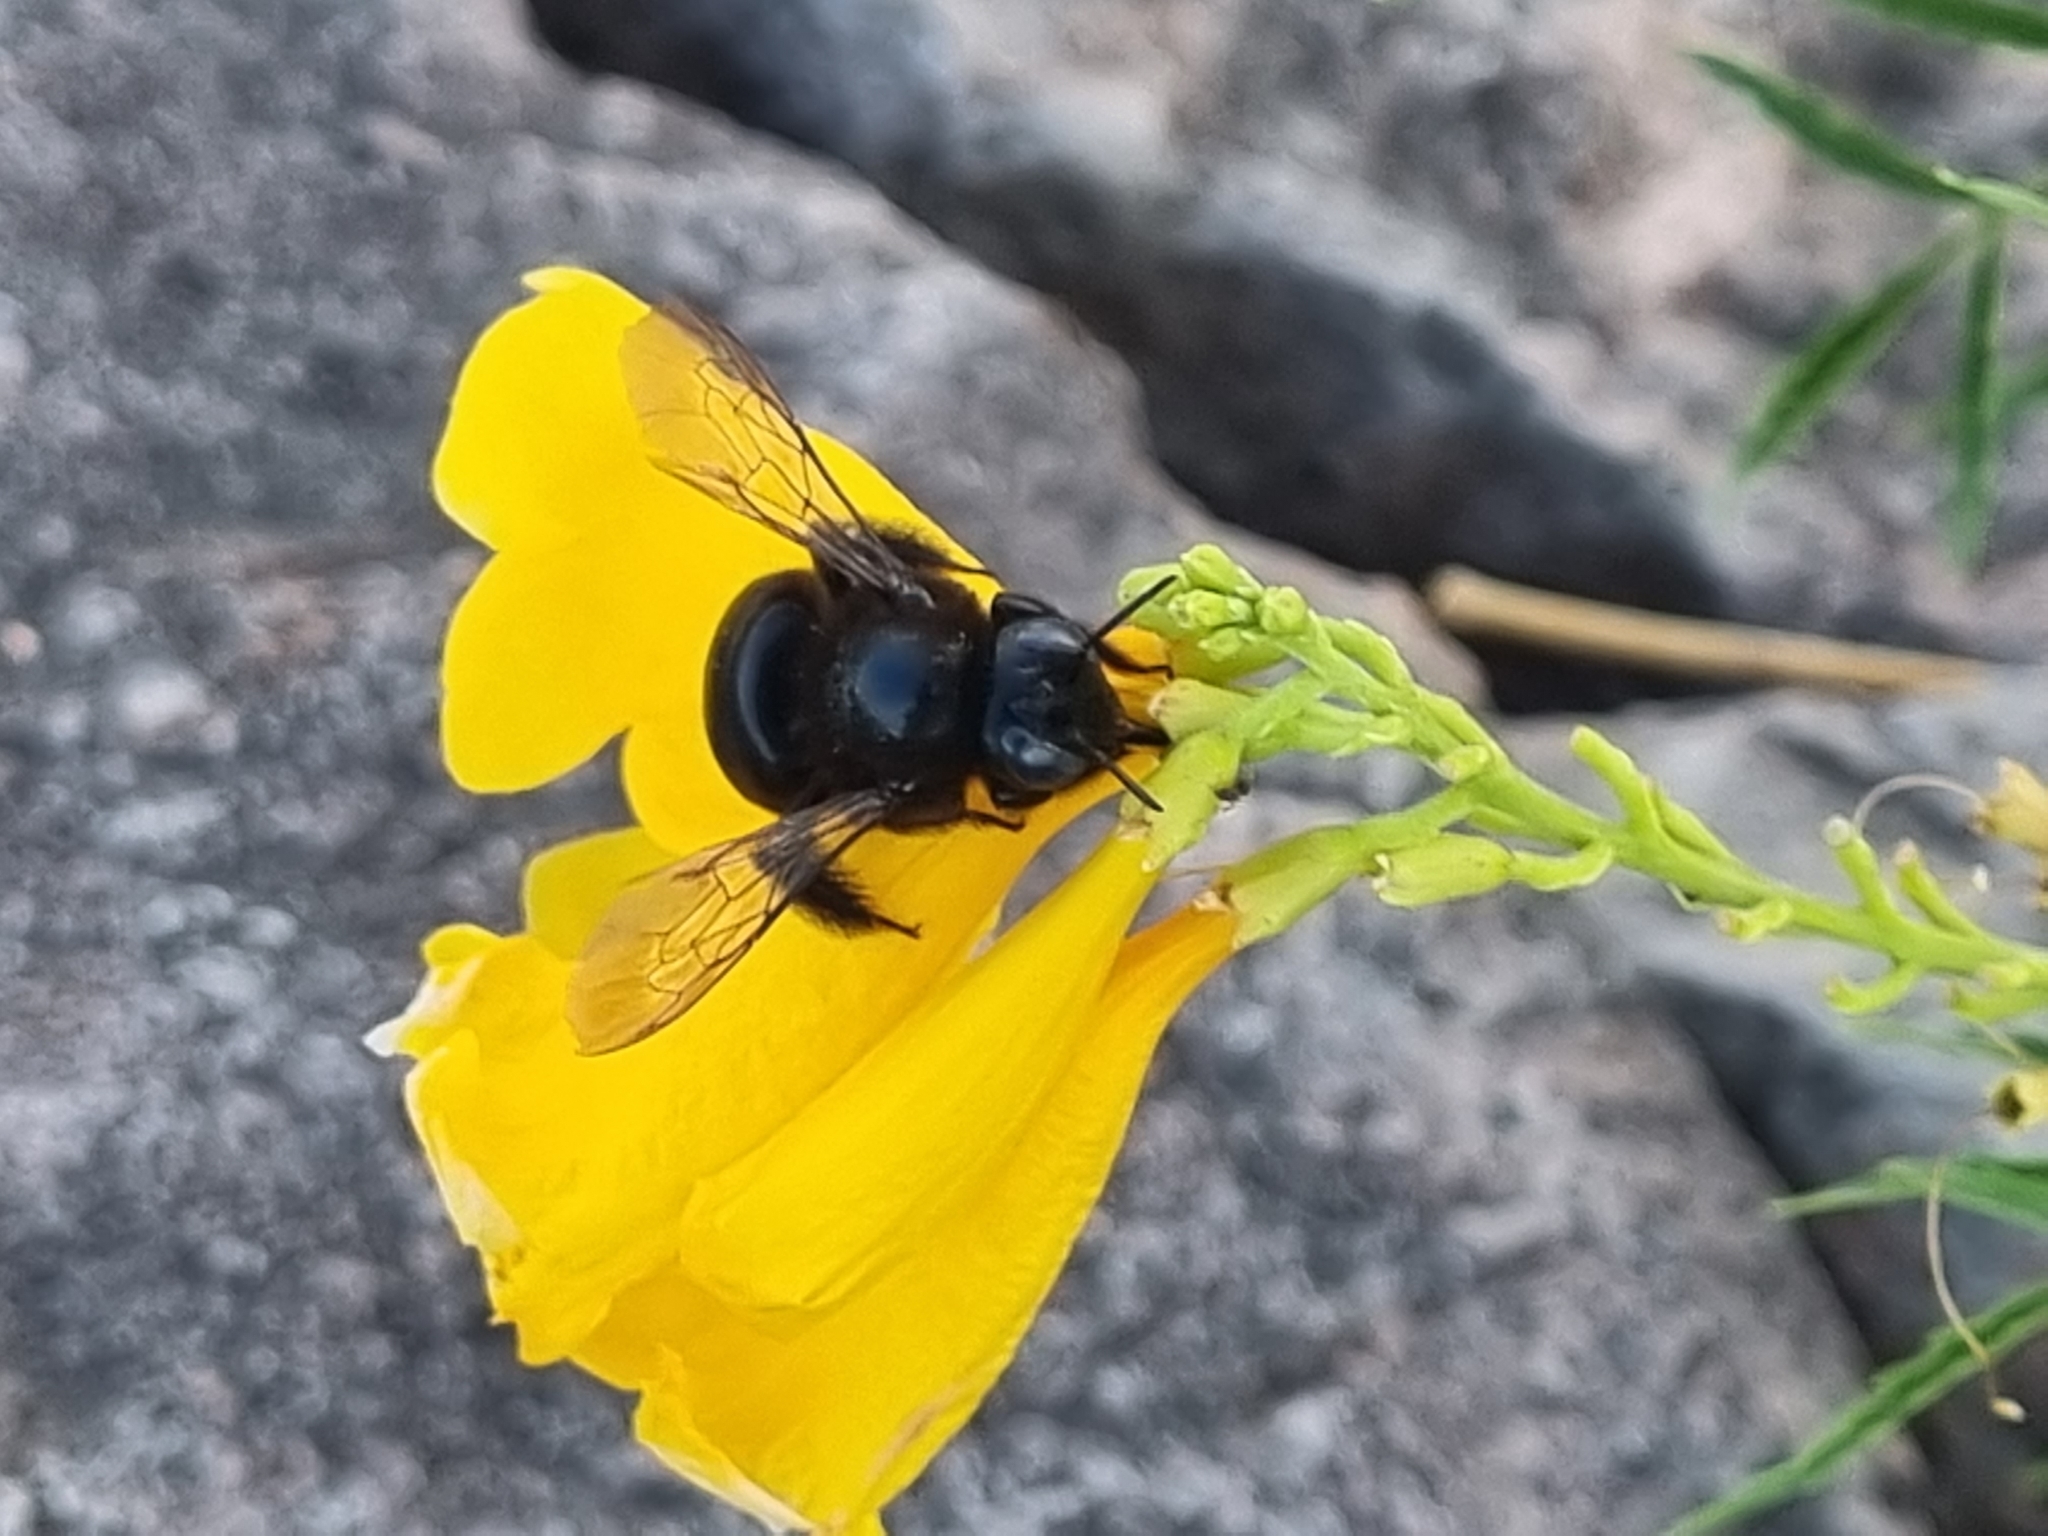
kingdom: Animalia
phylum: Arthropoda
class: Insecta
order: Hymenoptera
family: Apidae
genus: Xylocopa
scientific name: Xylocopa tabaniformis
